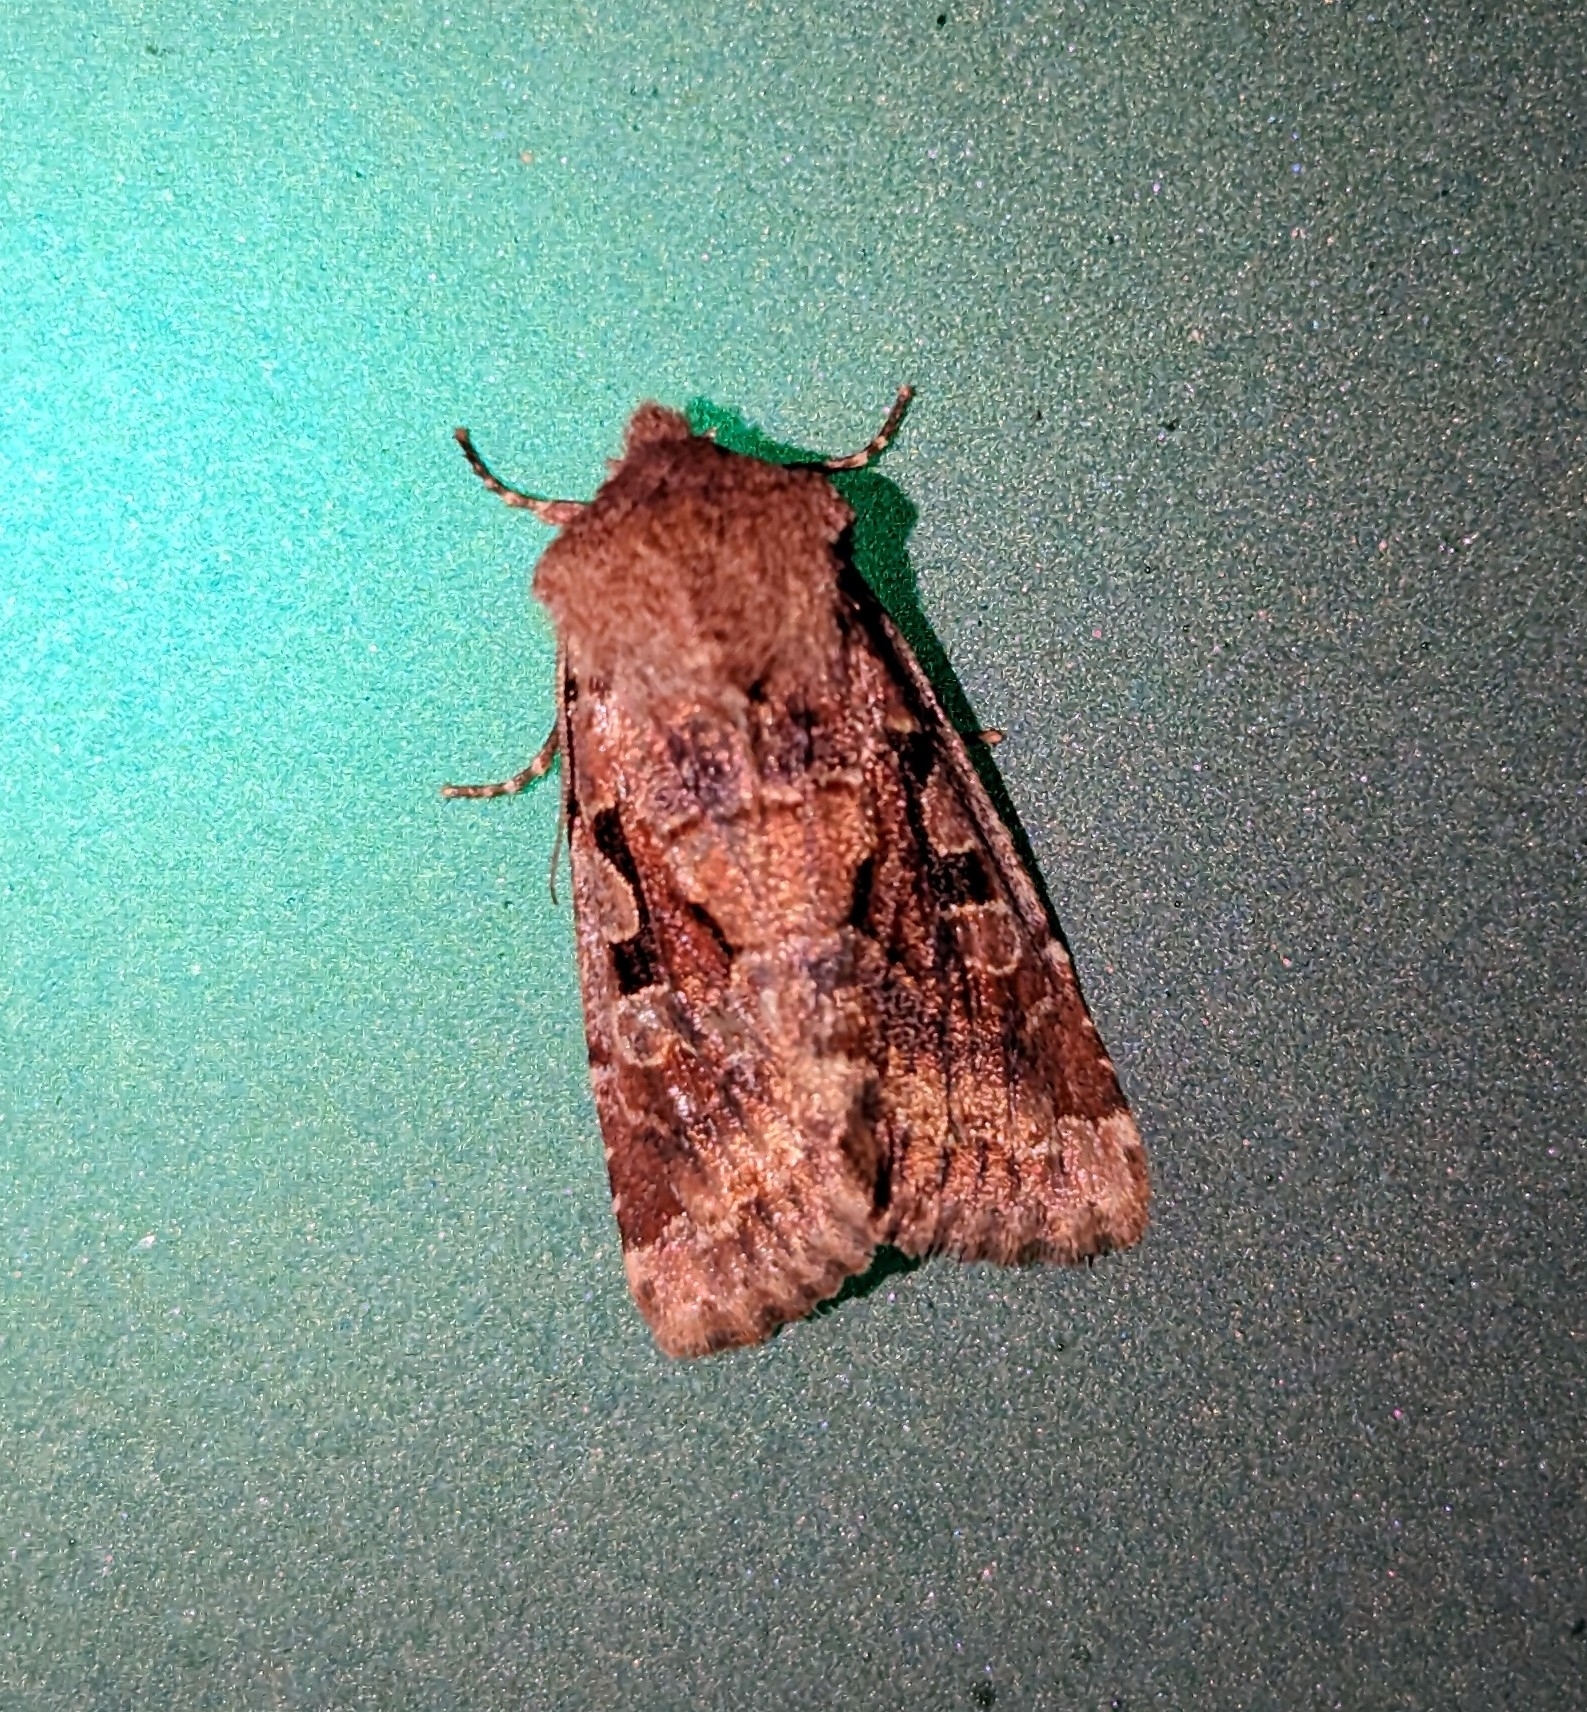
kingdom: Animalia
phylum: Arthropoda
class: Insecta
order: Lepidoptera
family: Noctuidae
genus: Orthosia
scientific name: Orthosia gothica
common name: Hebrew character
